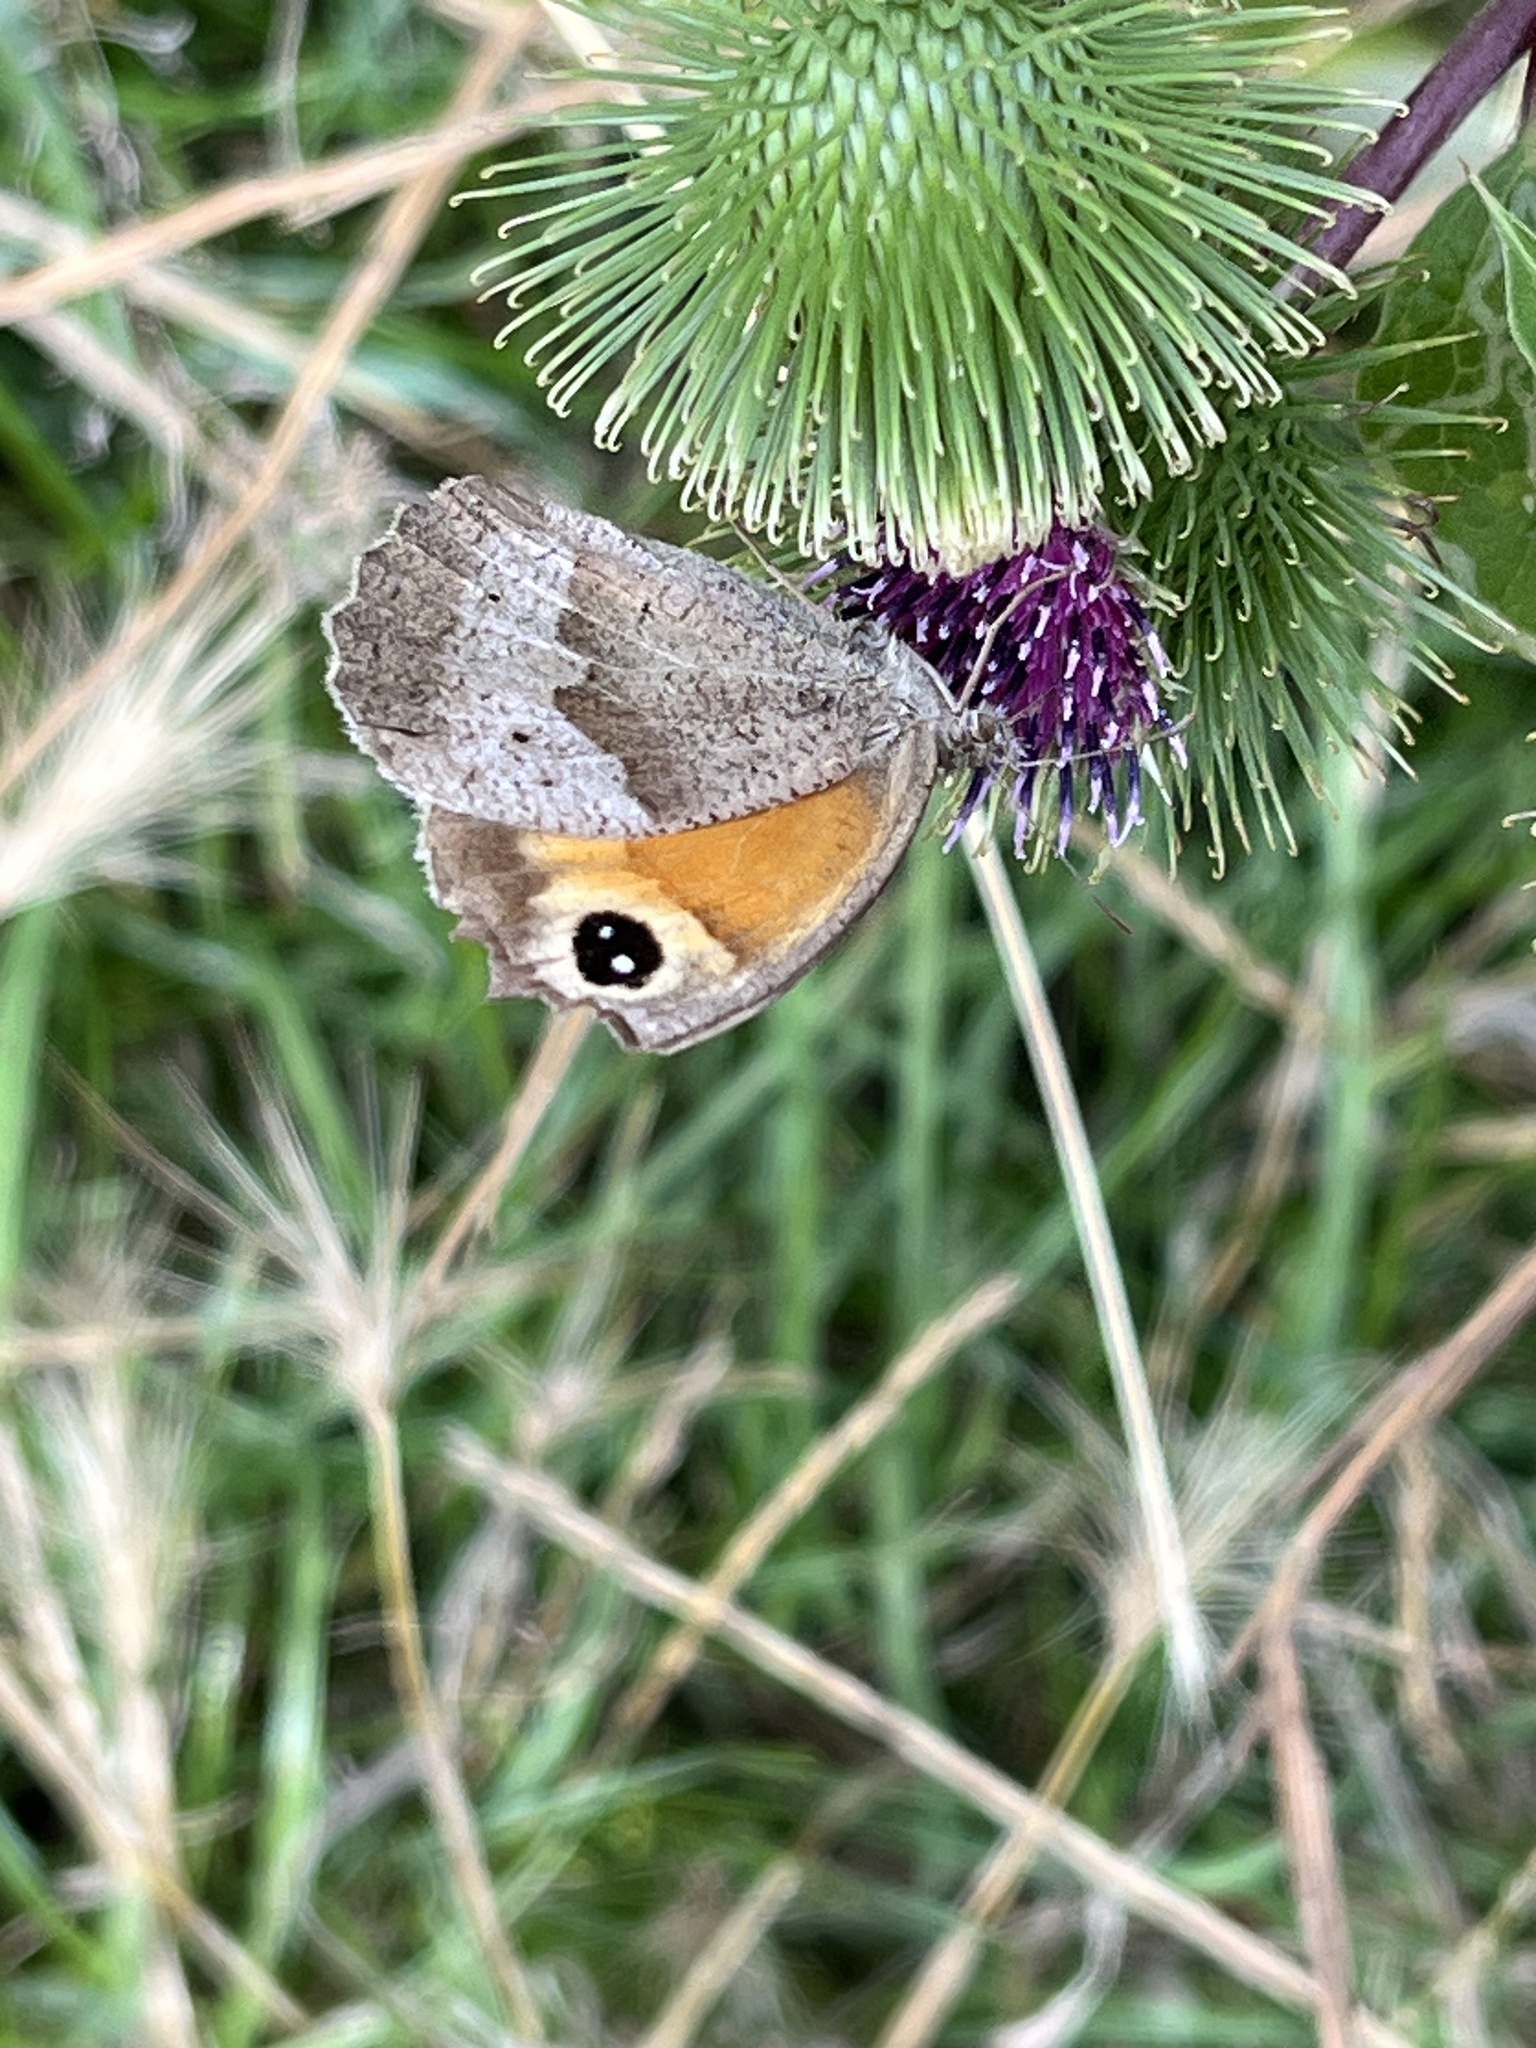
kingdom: Animalia
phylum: Arthropoda
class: Insecta
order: Lepidoptera
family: Nymphalidae
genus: Maniola
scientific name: Maniola jurtina
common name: Meadow brown
